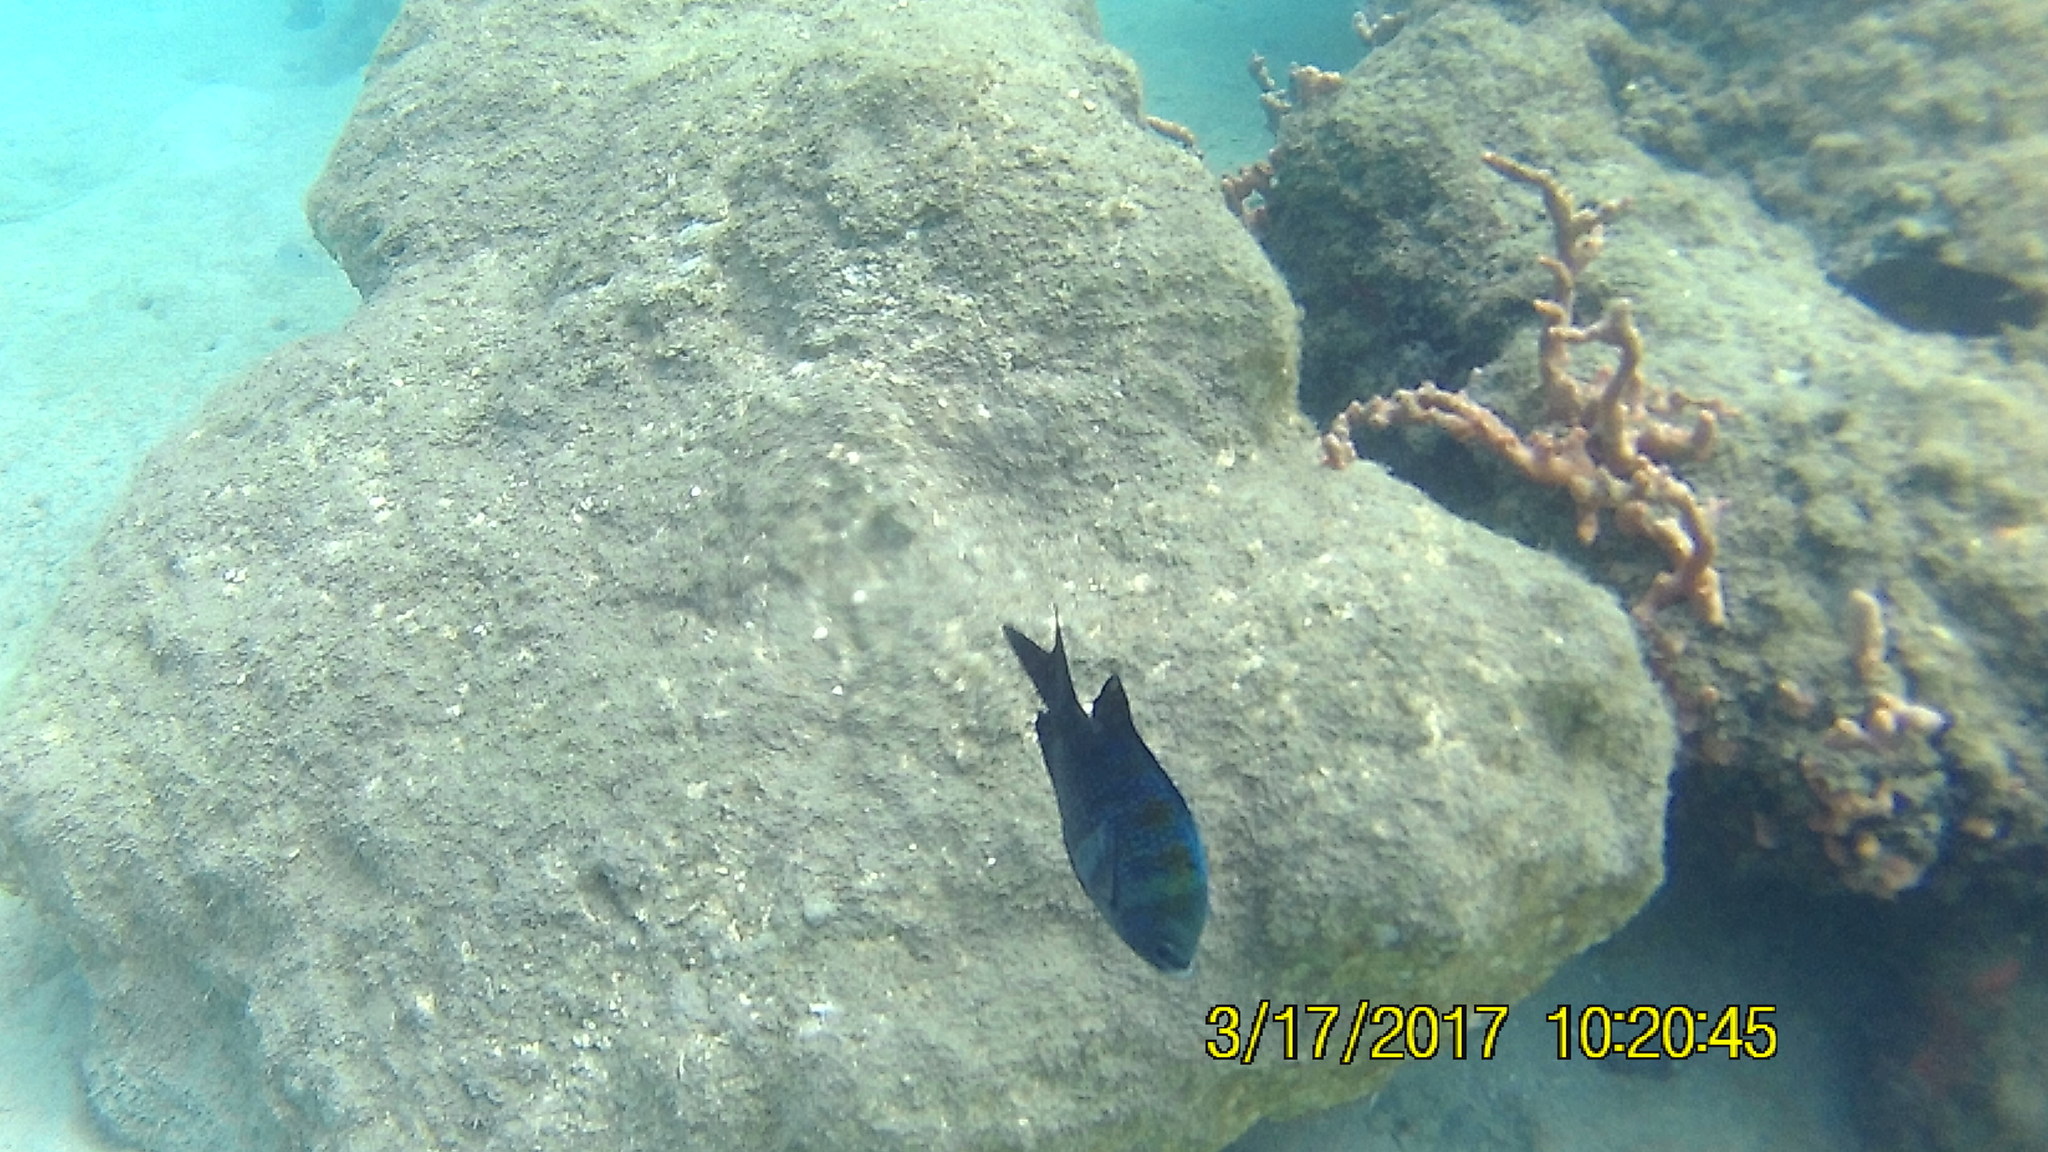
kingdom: Animalia
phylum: Chordata
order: Perciformes
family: Pomacentridae
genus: Abudefduf
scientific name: Abudefduf saxatilis
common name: Sergeant major
